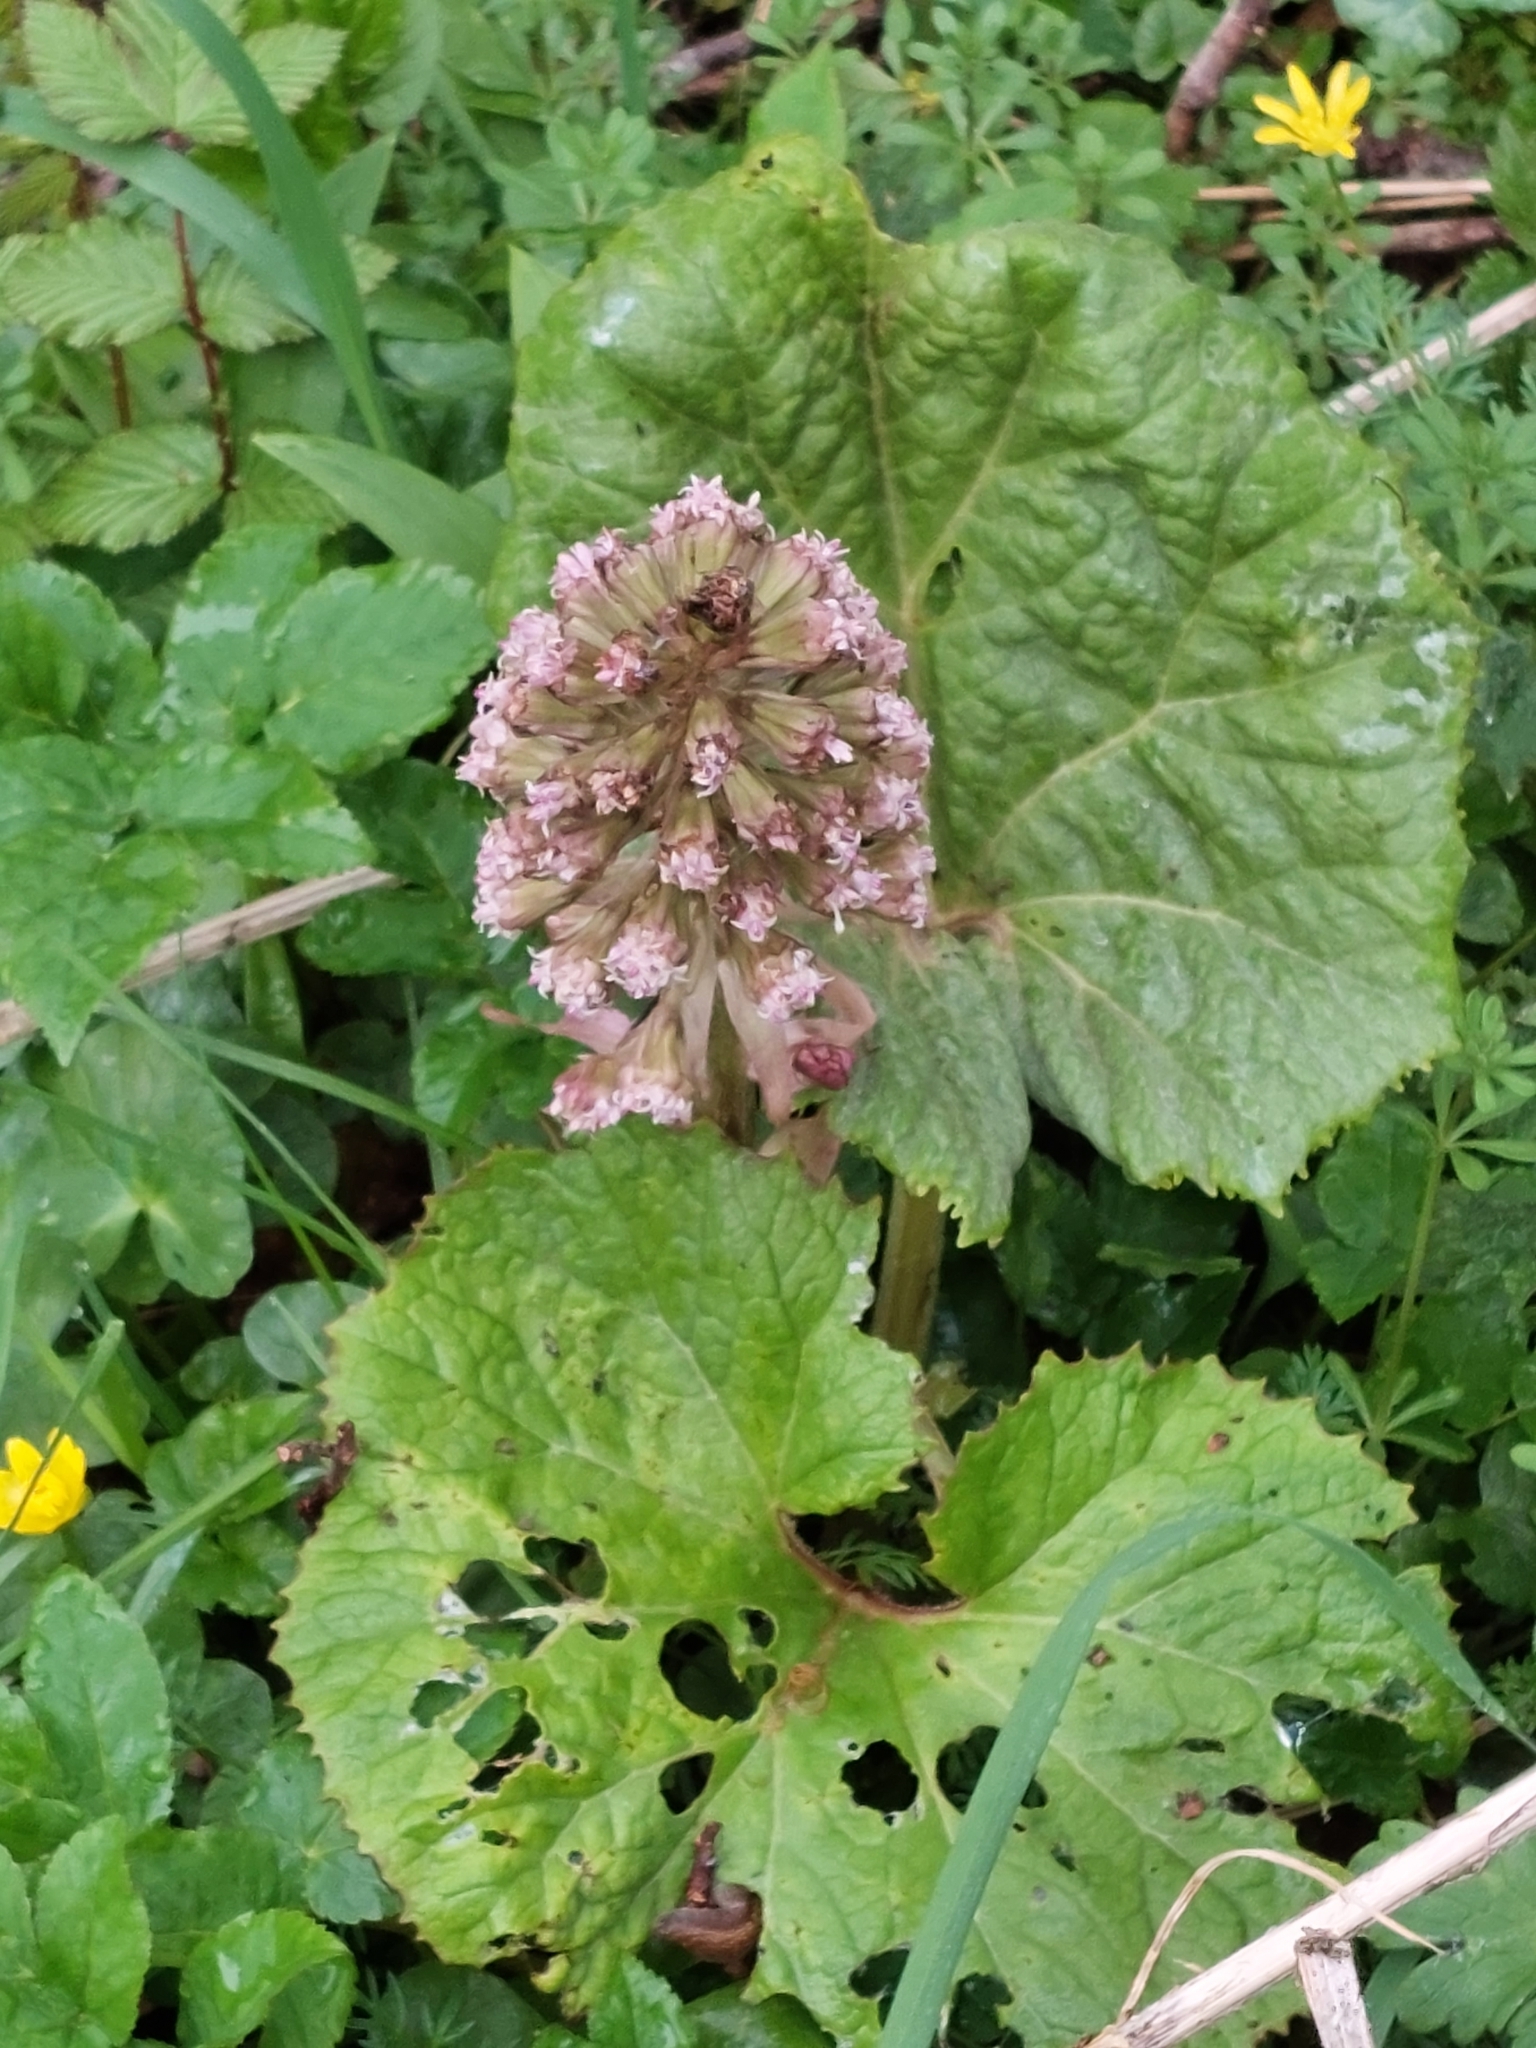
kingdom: Plantae
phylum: Tracheophyta
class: Magnoliopsida
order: Asterales
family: Asteraceae
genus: Petasites
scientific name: Petasites hybridus
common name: Butterbur
